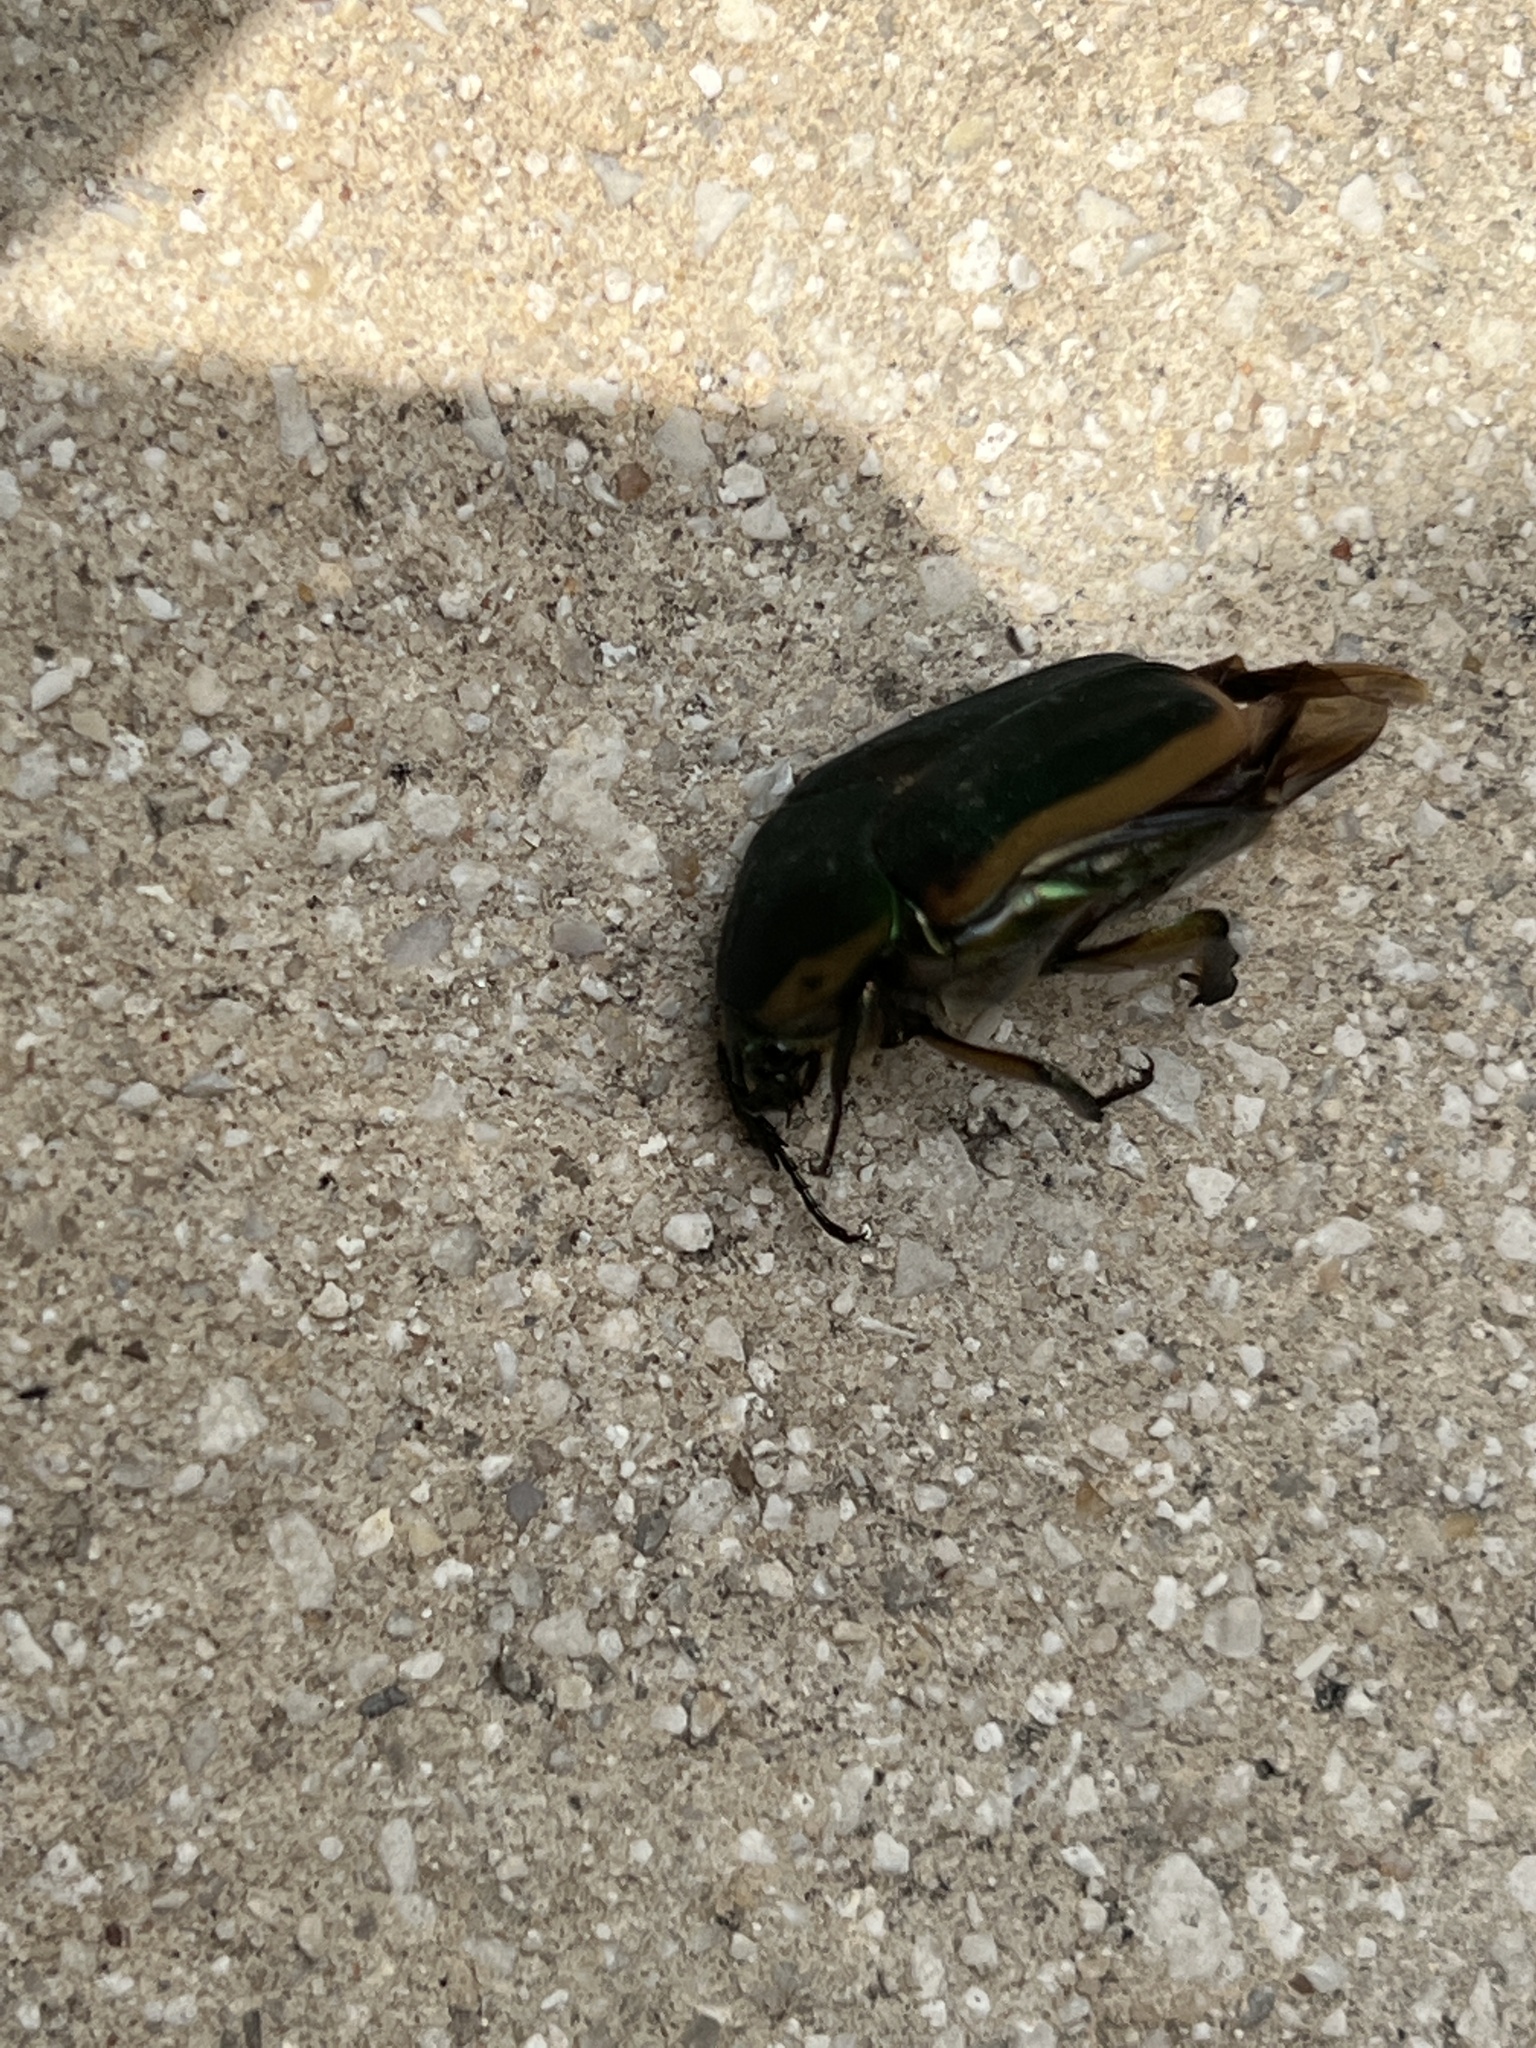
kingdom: Animalia
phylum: Arthropoda
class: Insecta
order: Coleoptera
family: Scarabaeidae
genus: Cotinis
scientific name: Cotinis nitida
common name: Common green june beetle
